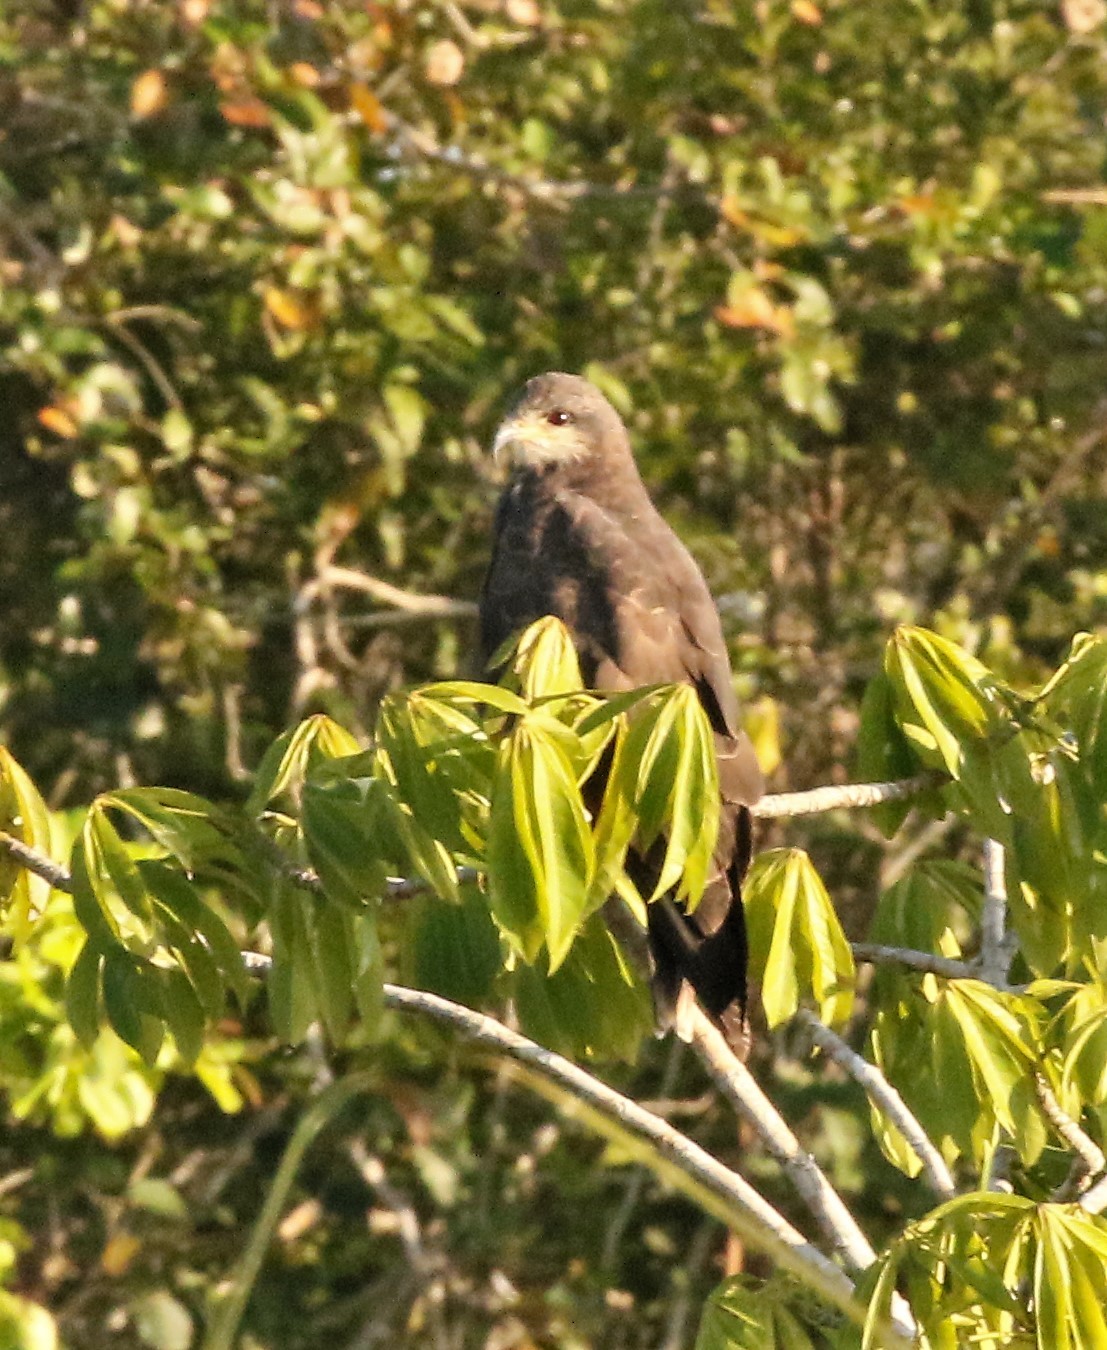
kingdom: Animalia
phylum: Chordata
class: Aves
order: Accipitriformes
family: Accipitridae
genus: Rostrhamus
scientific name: Rostrhamus sociabilis
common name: Snail kite
